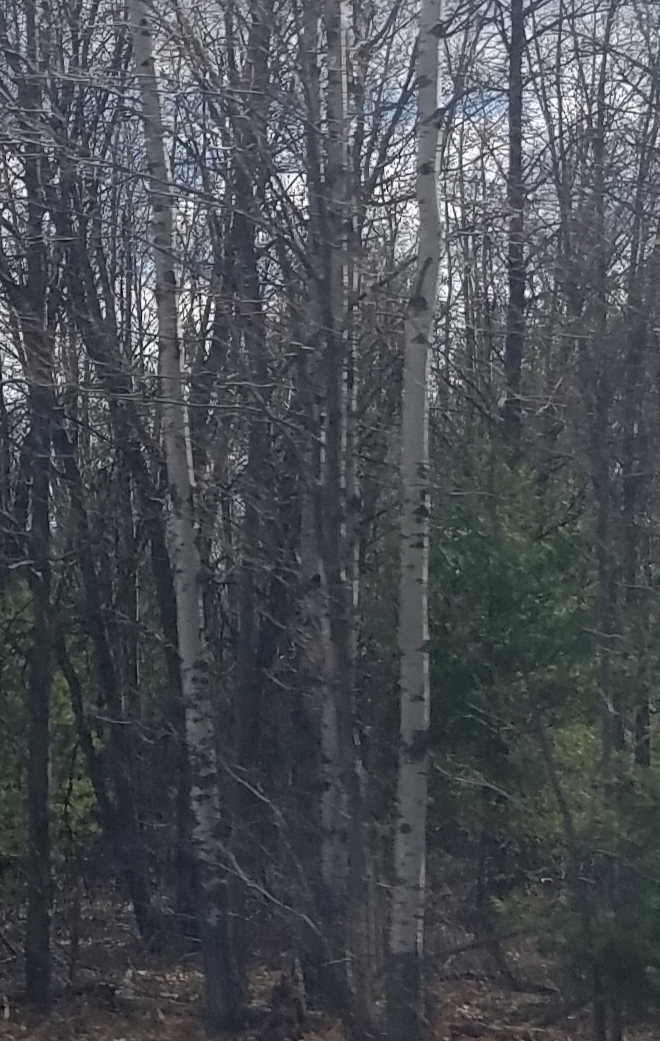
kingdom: Plantae
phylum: Tracheophyta
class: Magnoliopsida
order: Malpighiales
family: Salicaceae
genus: Populus
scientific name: Populus tremuloides
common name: Quaking aspen
